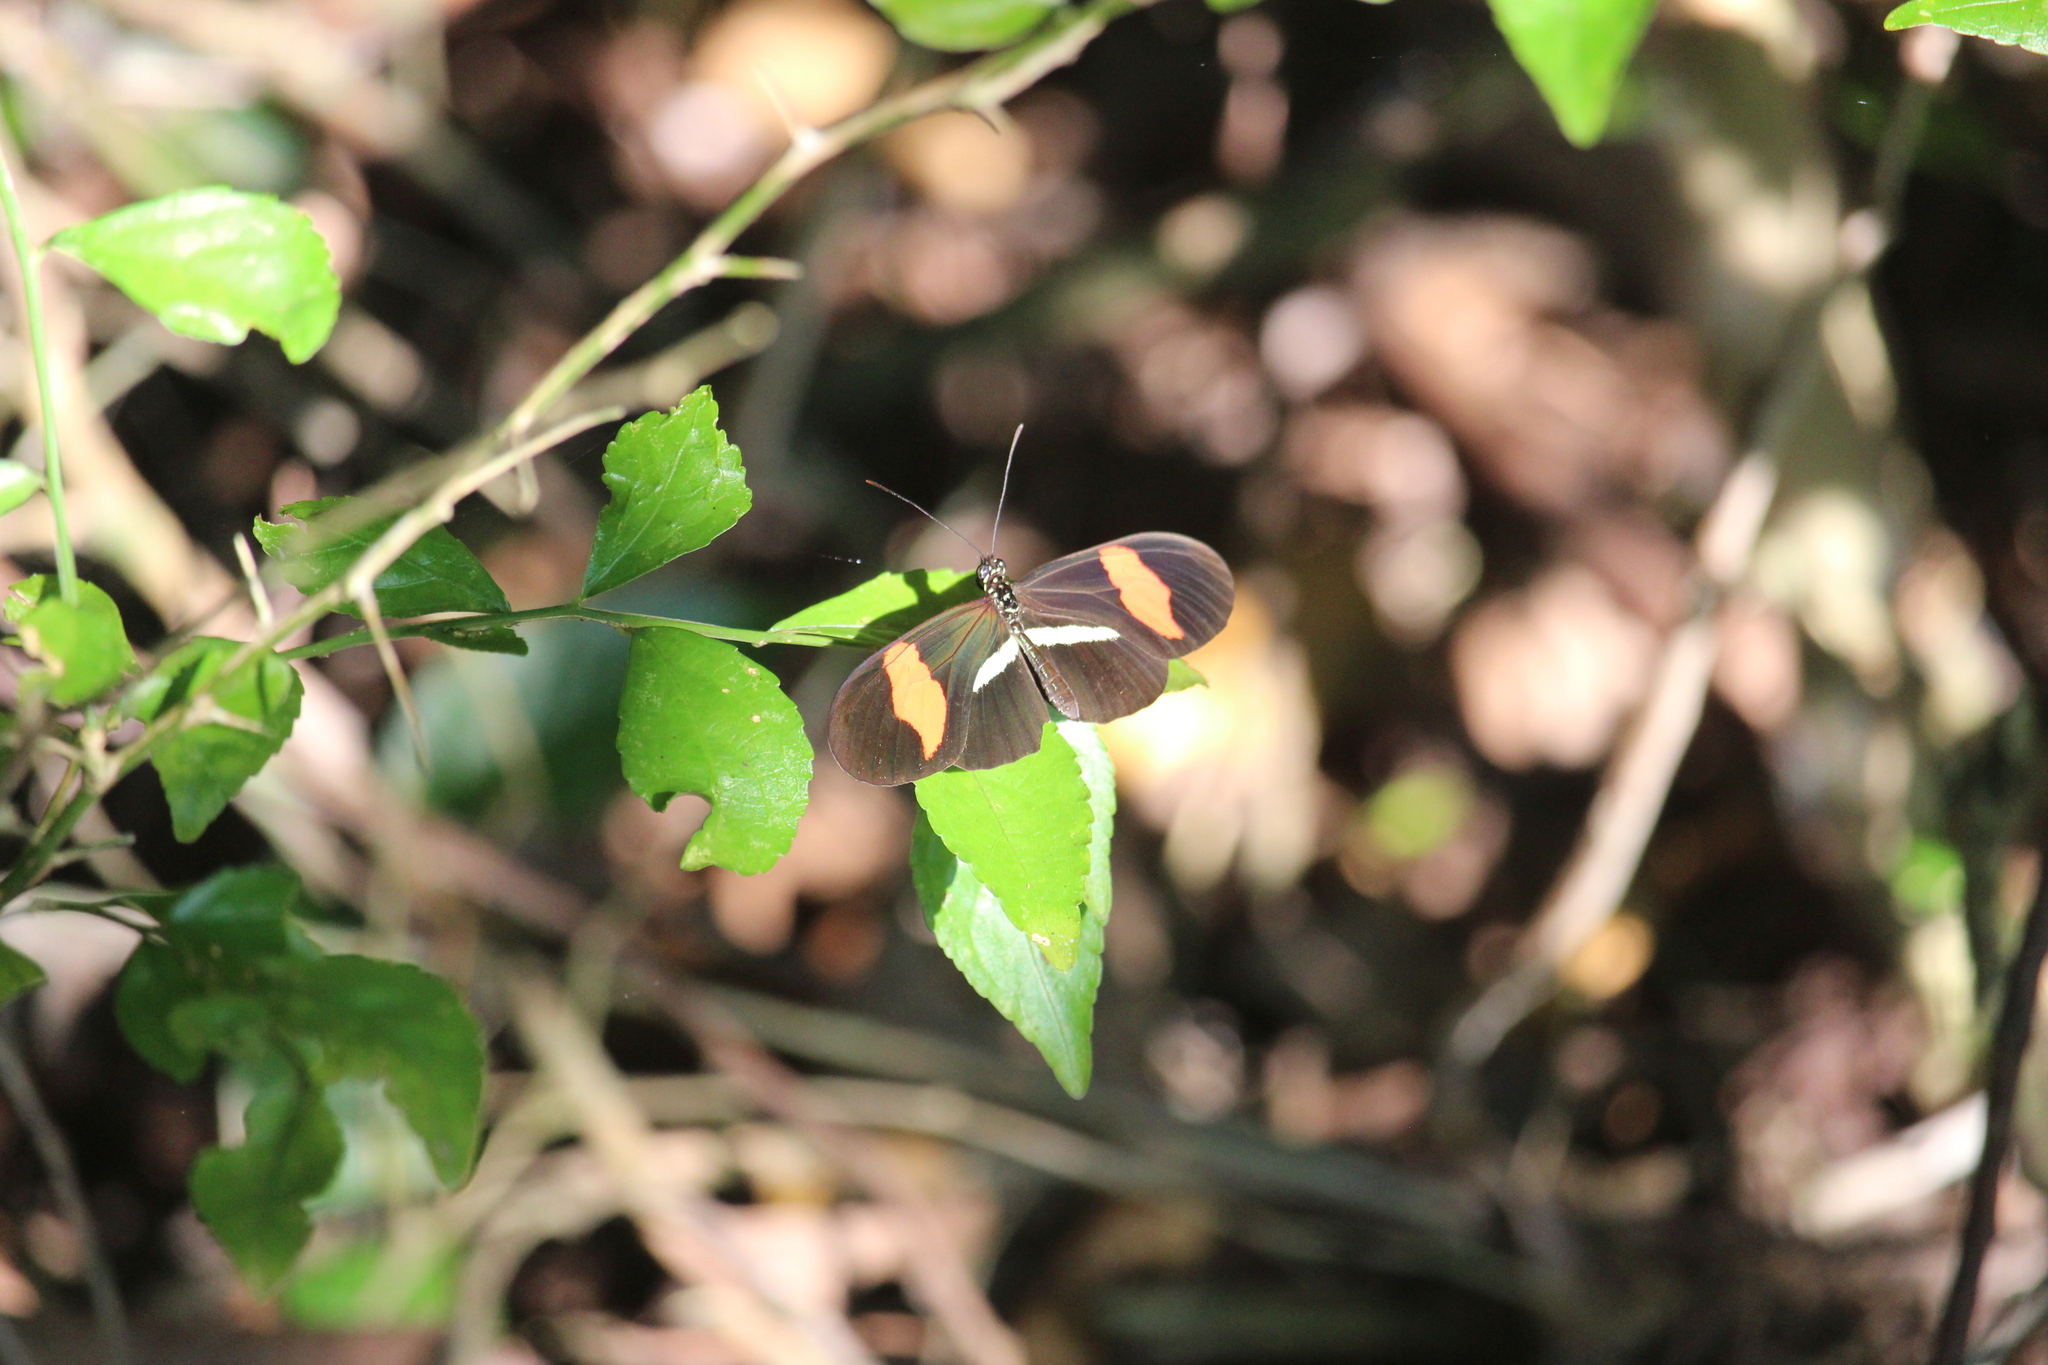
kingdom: Animalia
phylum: Arthropoda
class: Insecta
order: Lepidoptera
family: Nymphalidae
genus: Tirumala
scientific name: Tirumala petiverana
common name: Blue monarch
